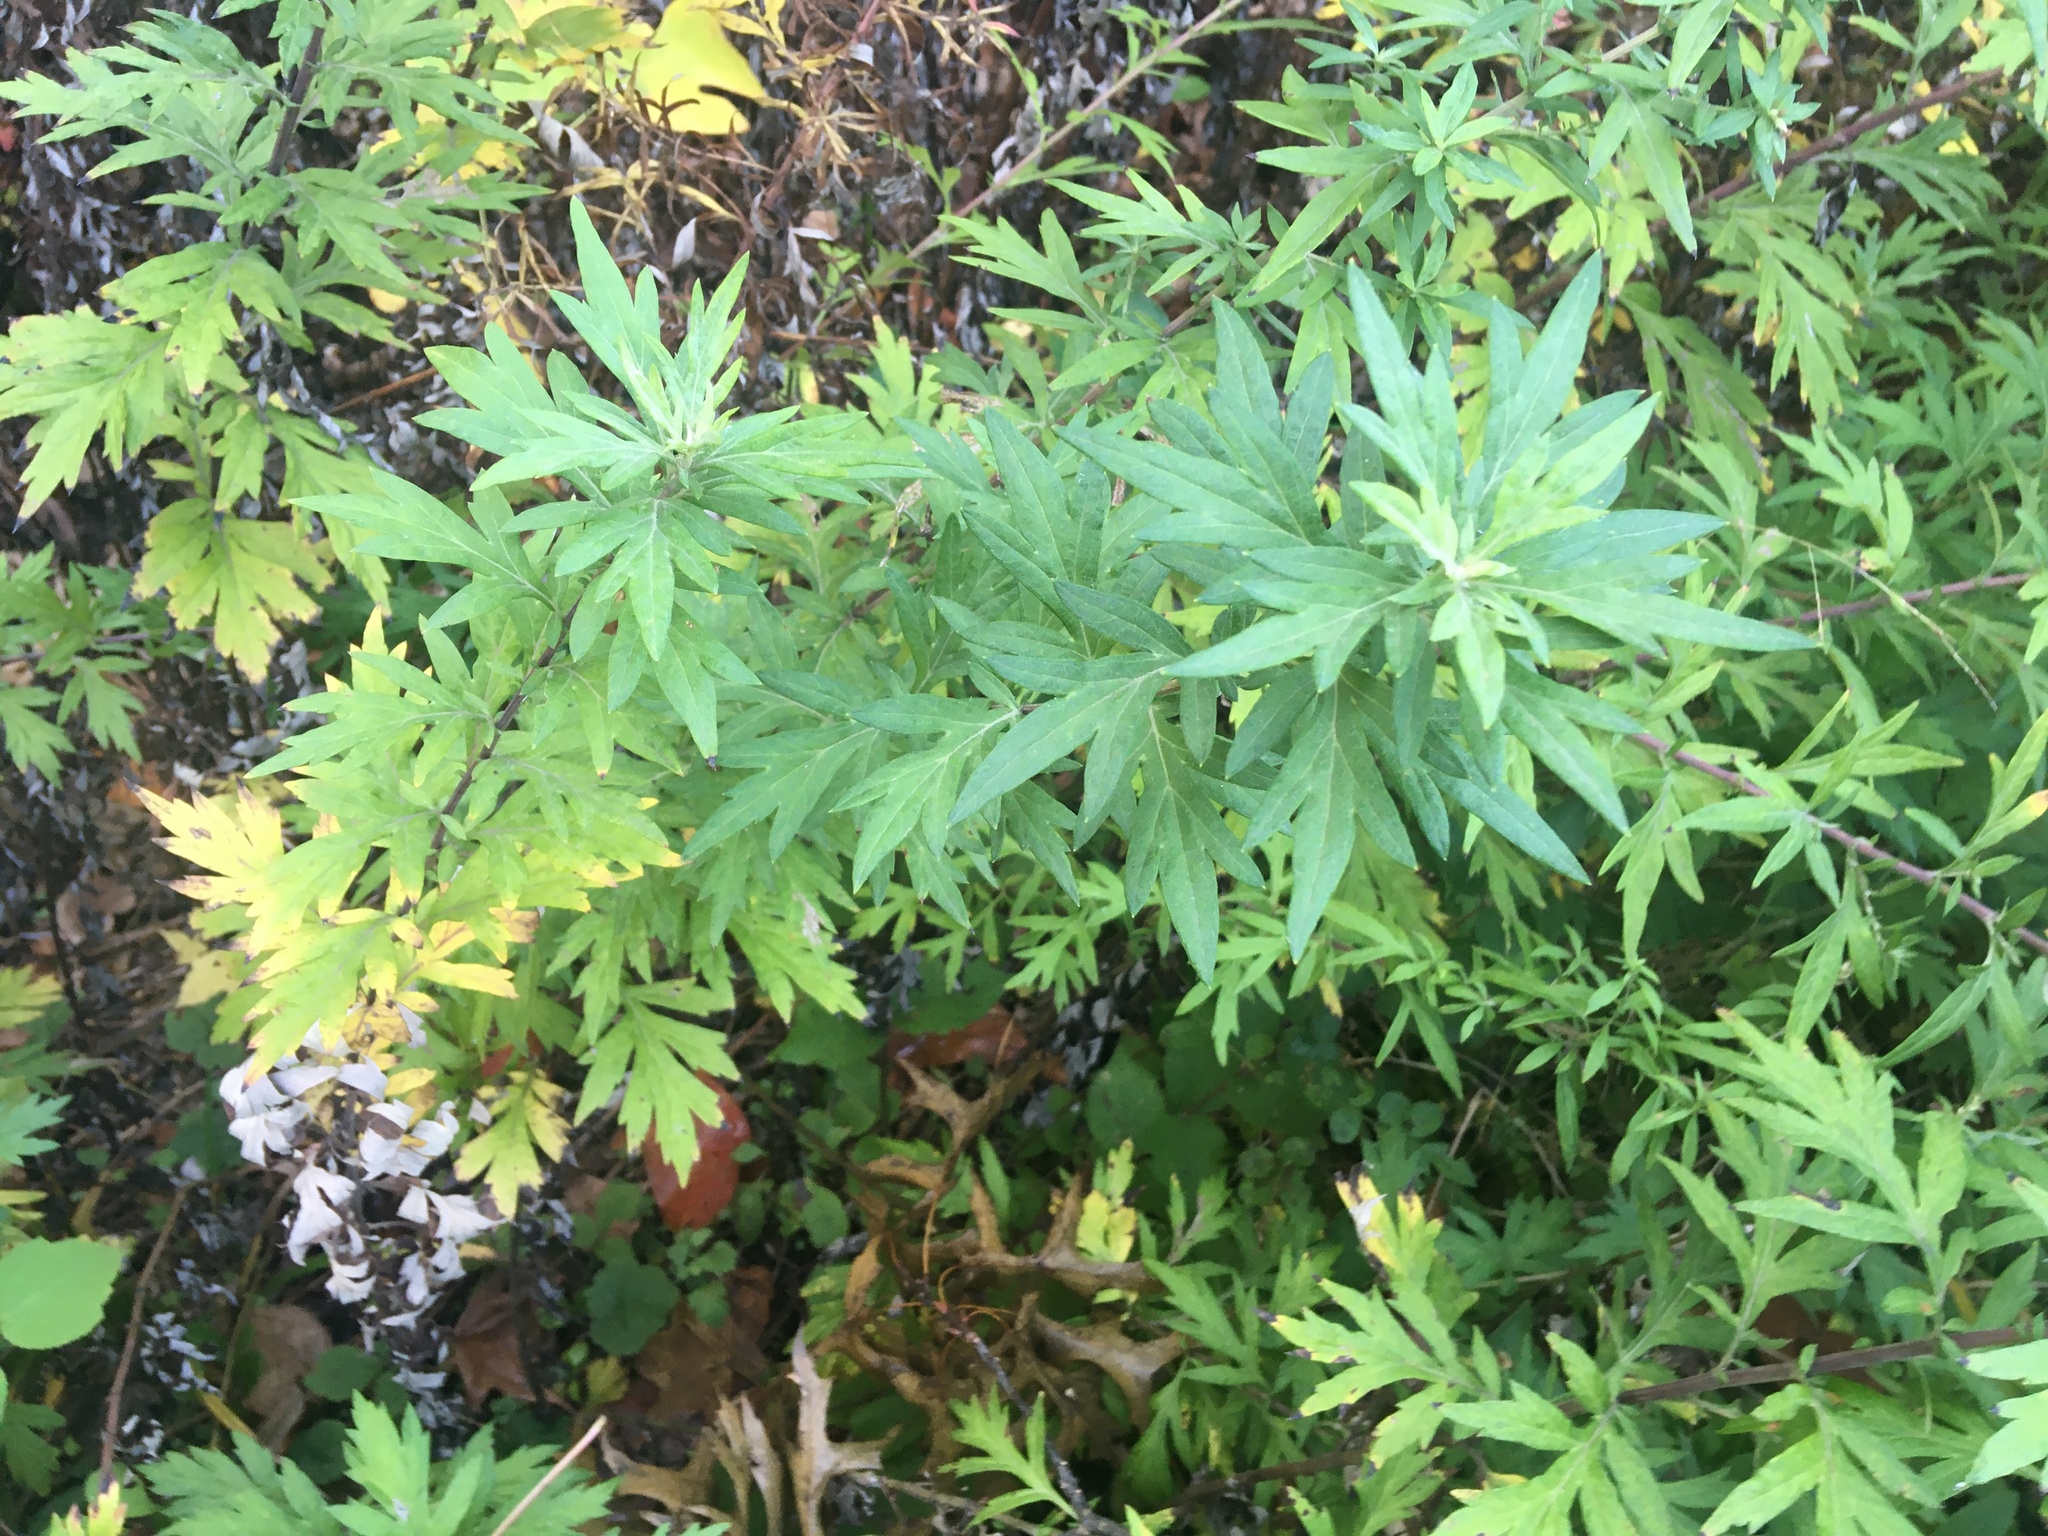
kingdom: Plantae
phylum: Tracheophyta
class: Magnoliopsida
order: Asterales
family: Asteraceae
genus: Artemisia
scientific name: Artemisia vulgaris
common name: Mugwort
